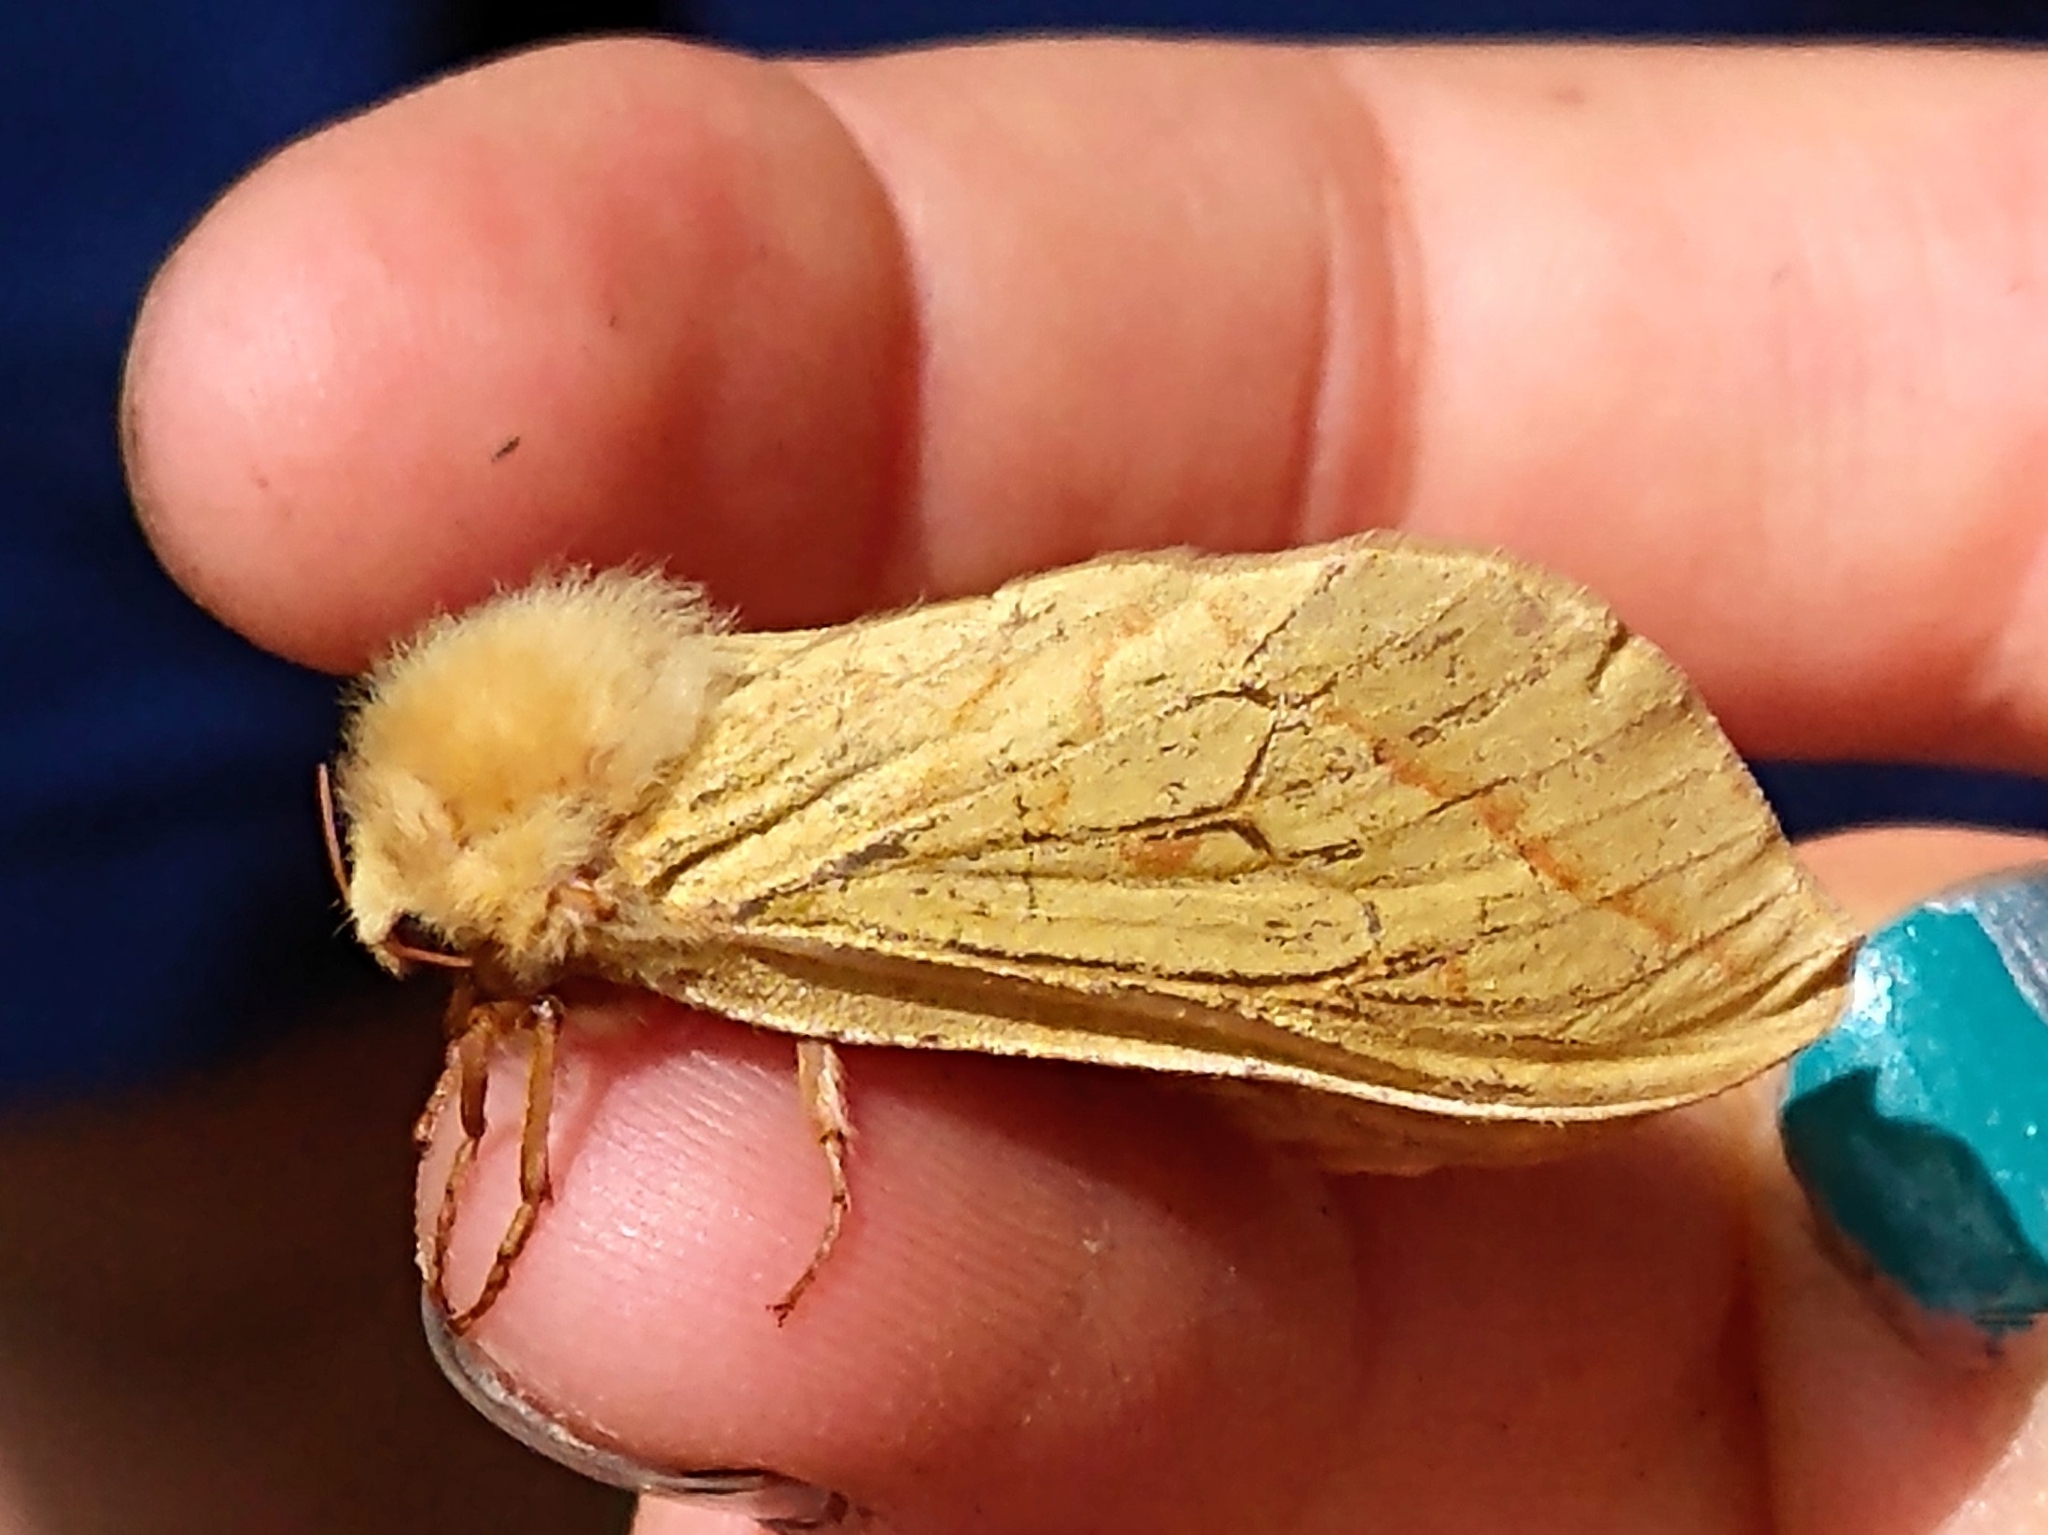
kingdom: Animalia
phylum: Arthropoda
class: Insecta
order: Lepidoptera
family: Hepialidae
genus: Hepialus
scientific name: Hepialus humuli
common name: Ghost moth
